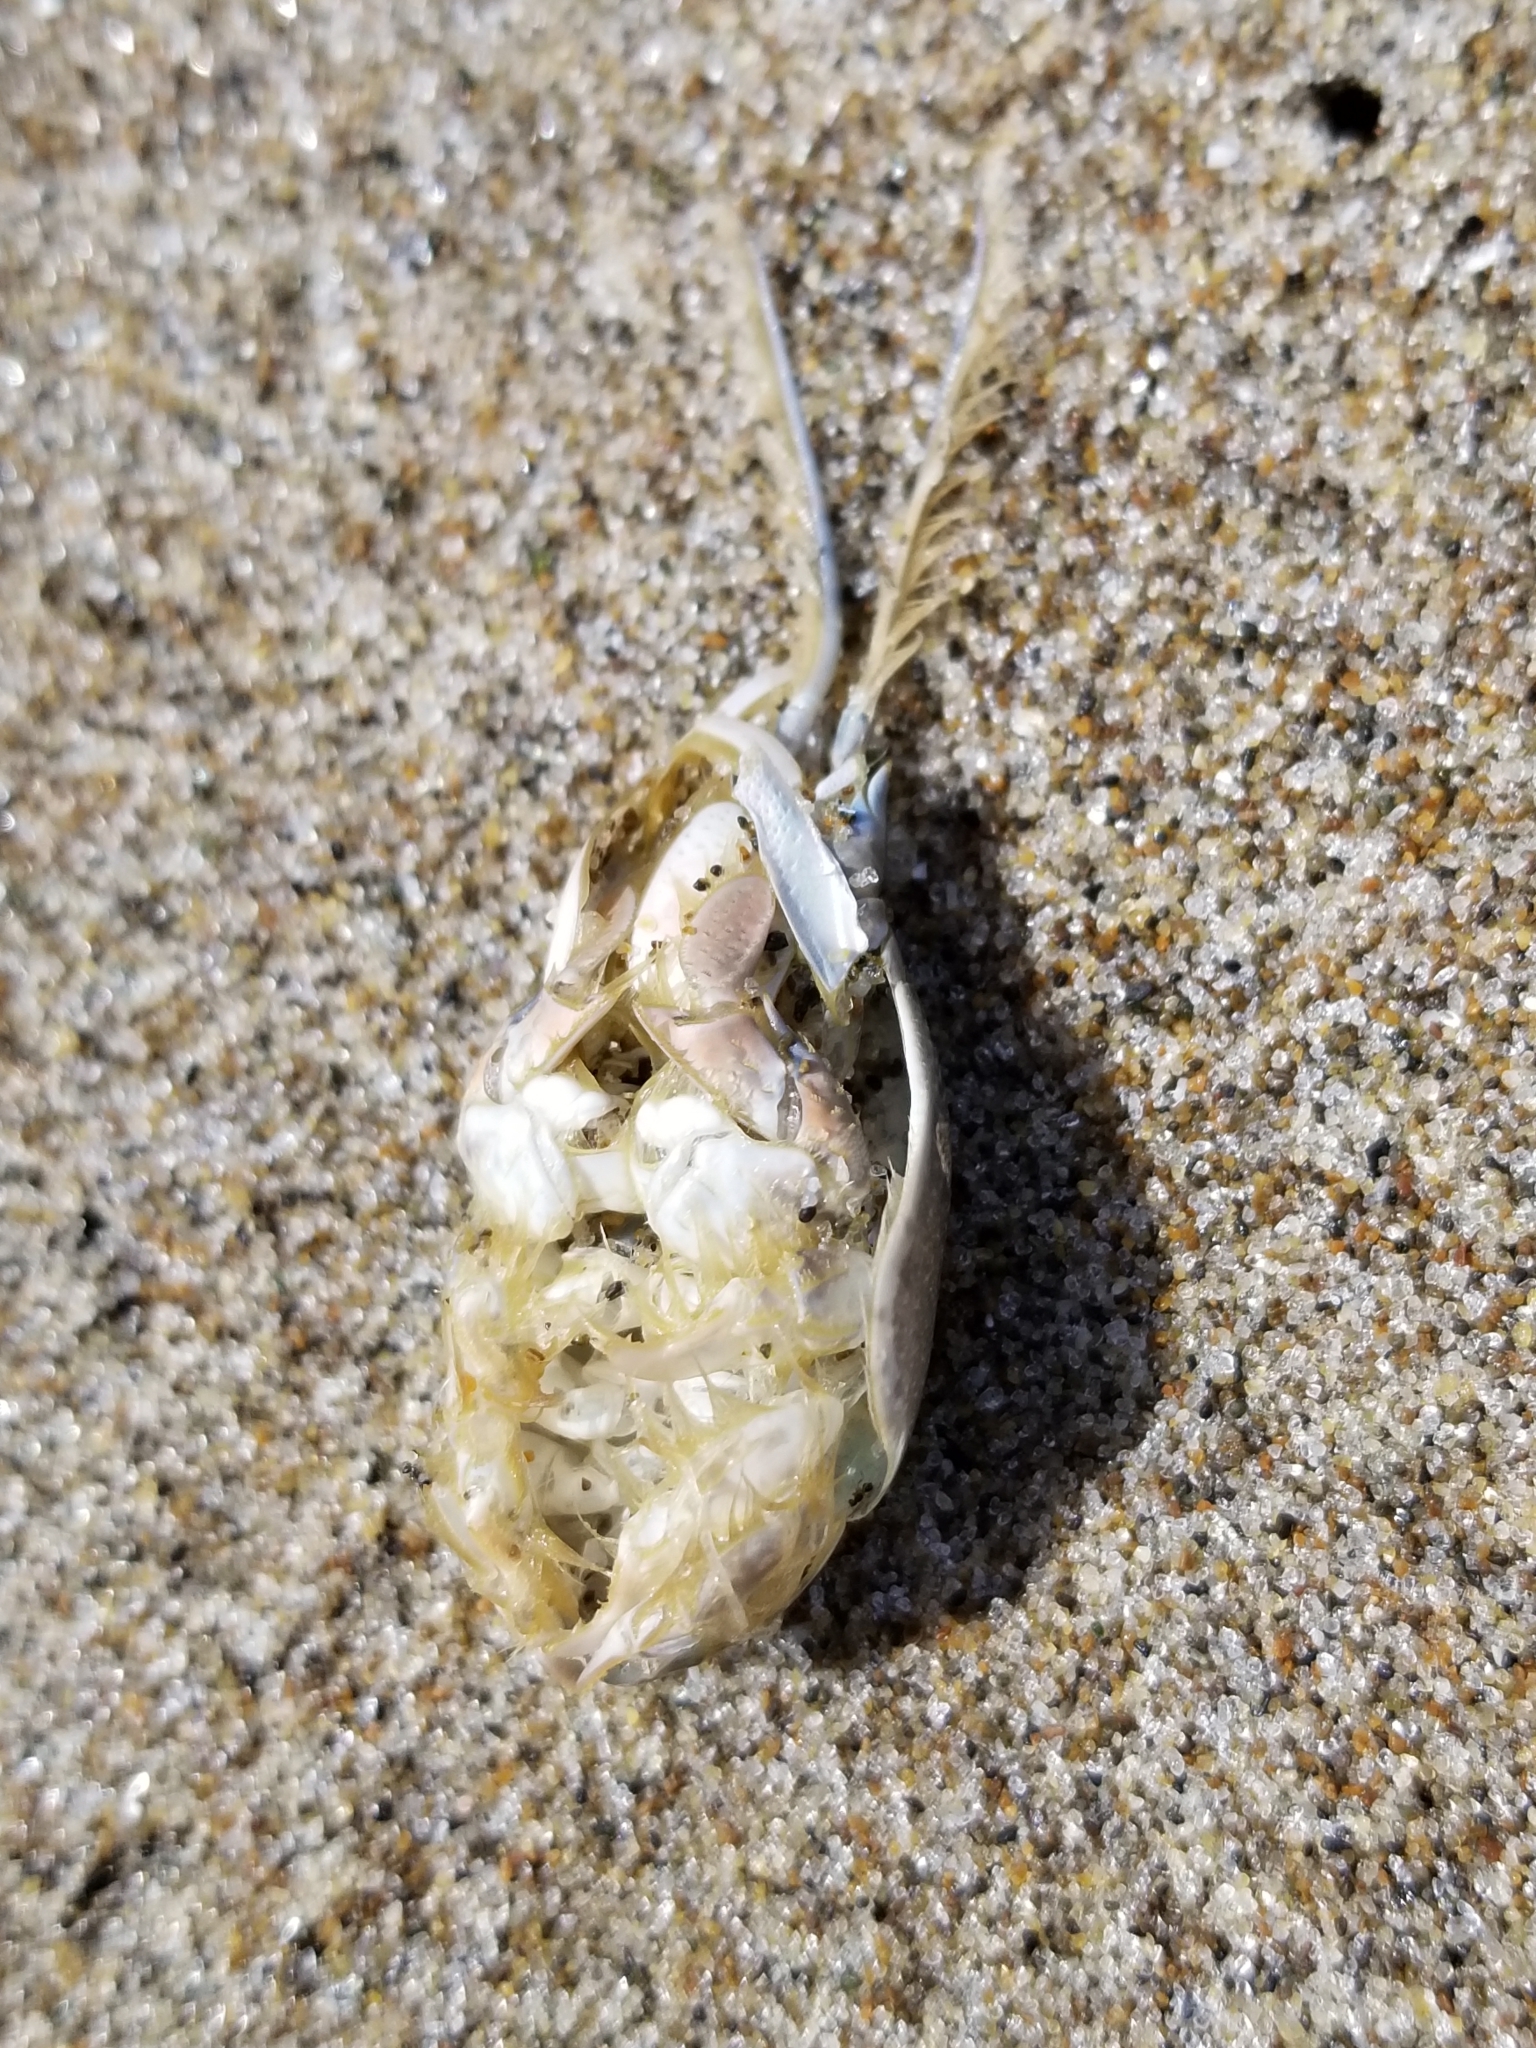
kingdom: Animalia
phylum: Arthropoda
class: Malacostraca
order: Decapoda
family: Hippidae
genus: Emerita
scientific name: Emerita analoga
